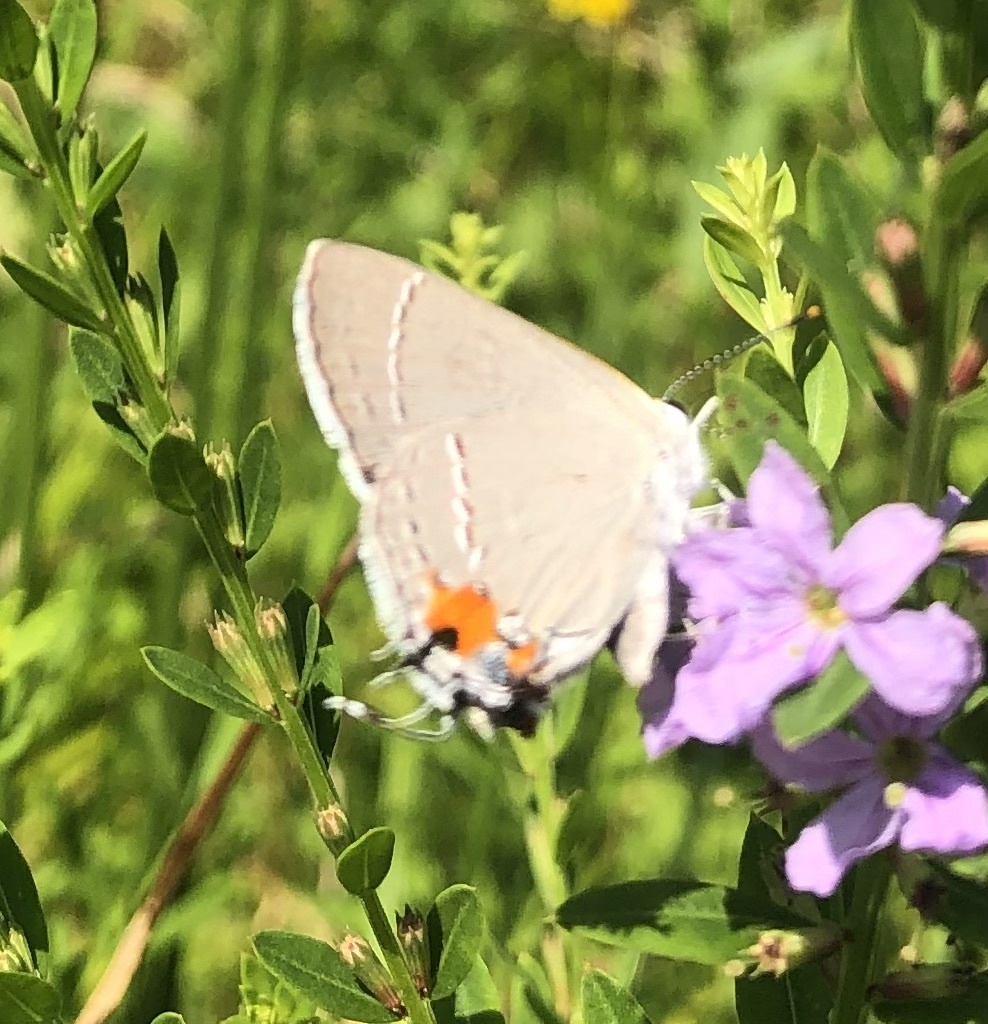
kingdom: Animalia
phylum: Arthropoda
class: Insecta
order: Lepidoptera
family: Lycaenidae
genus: Strymon
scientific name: Strymon melinus
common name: Gray hairstreak
